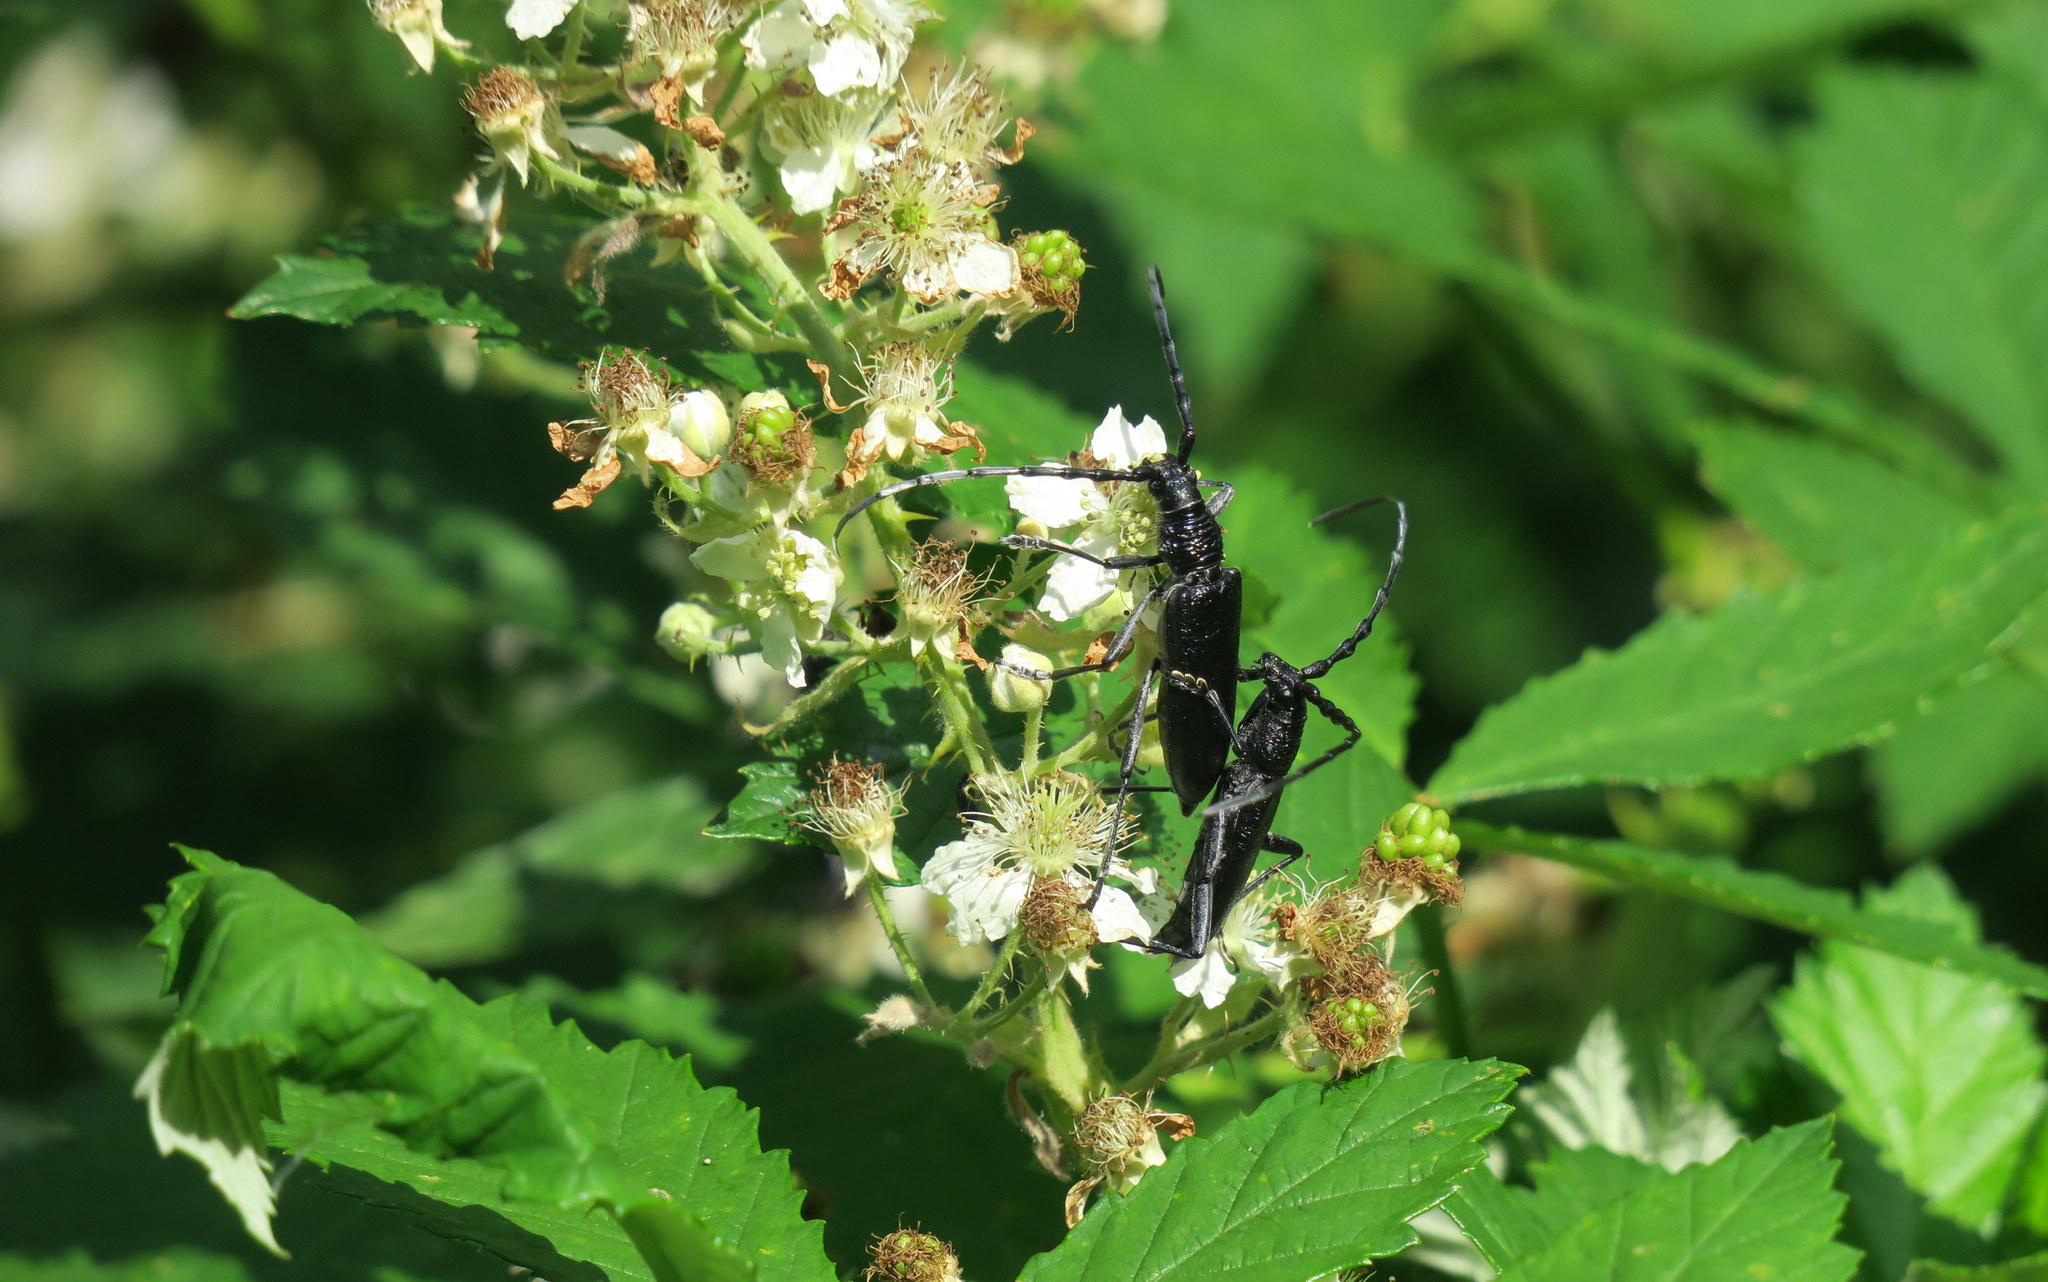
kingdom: Animalia
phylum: Arthropoda
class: Insecta
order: Coleoptera
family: Cerambycidae
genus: Cerambyx
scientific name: Cerambyx scopolii
